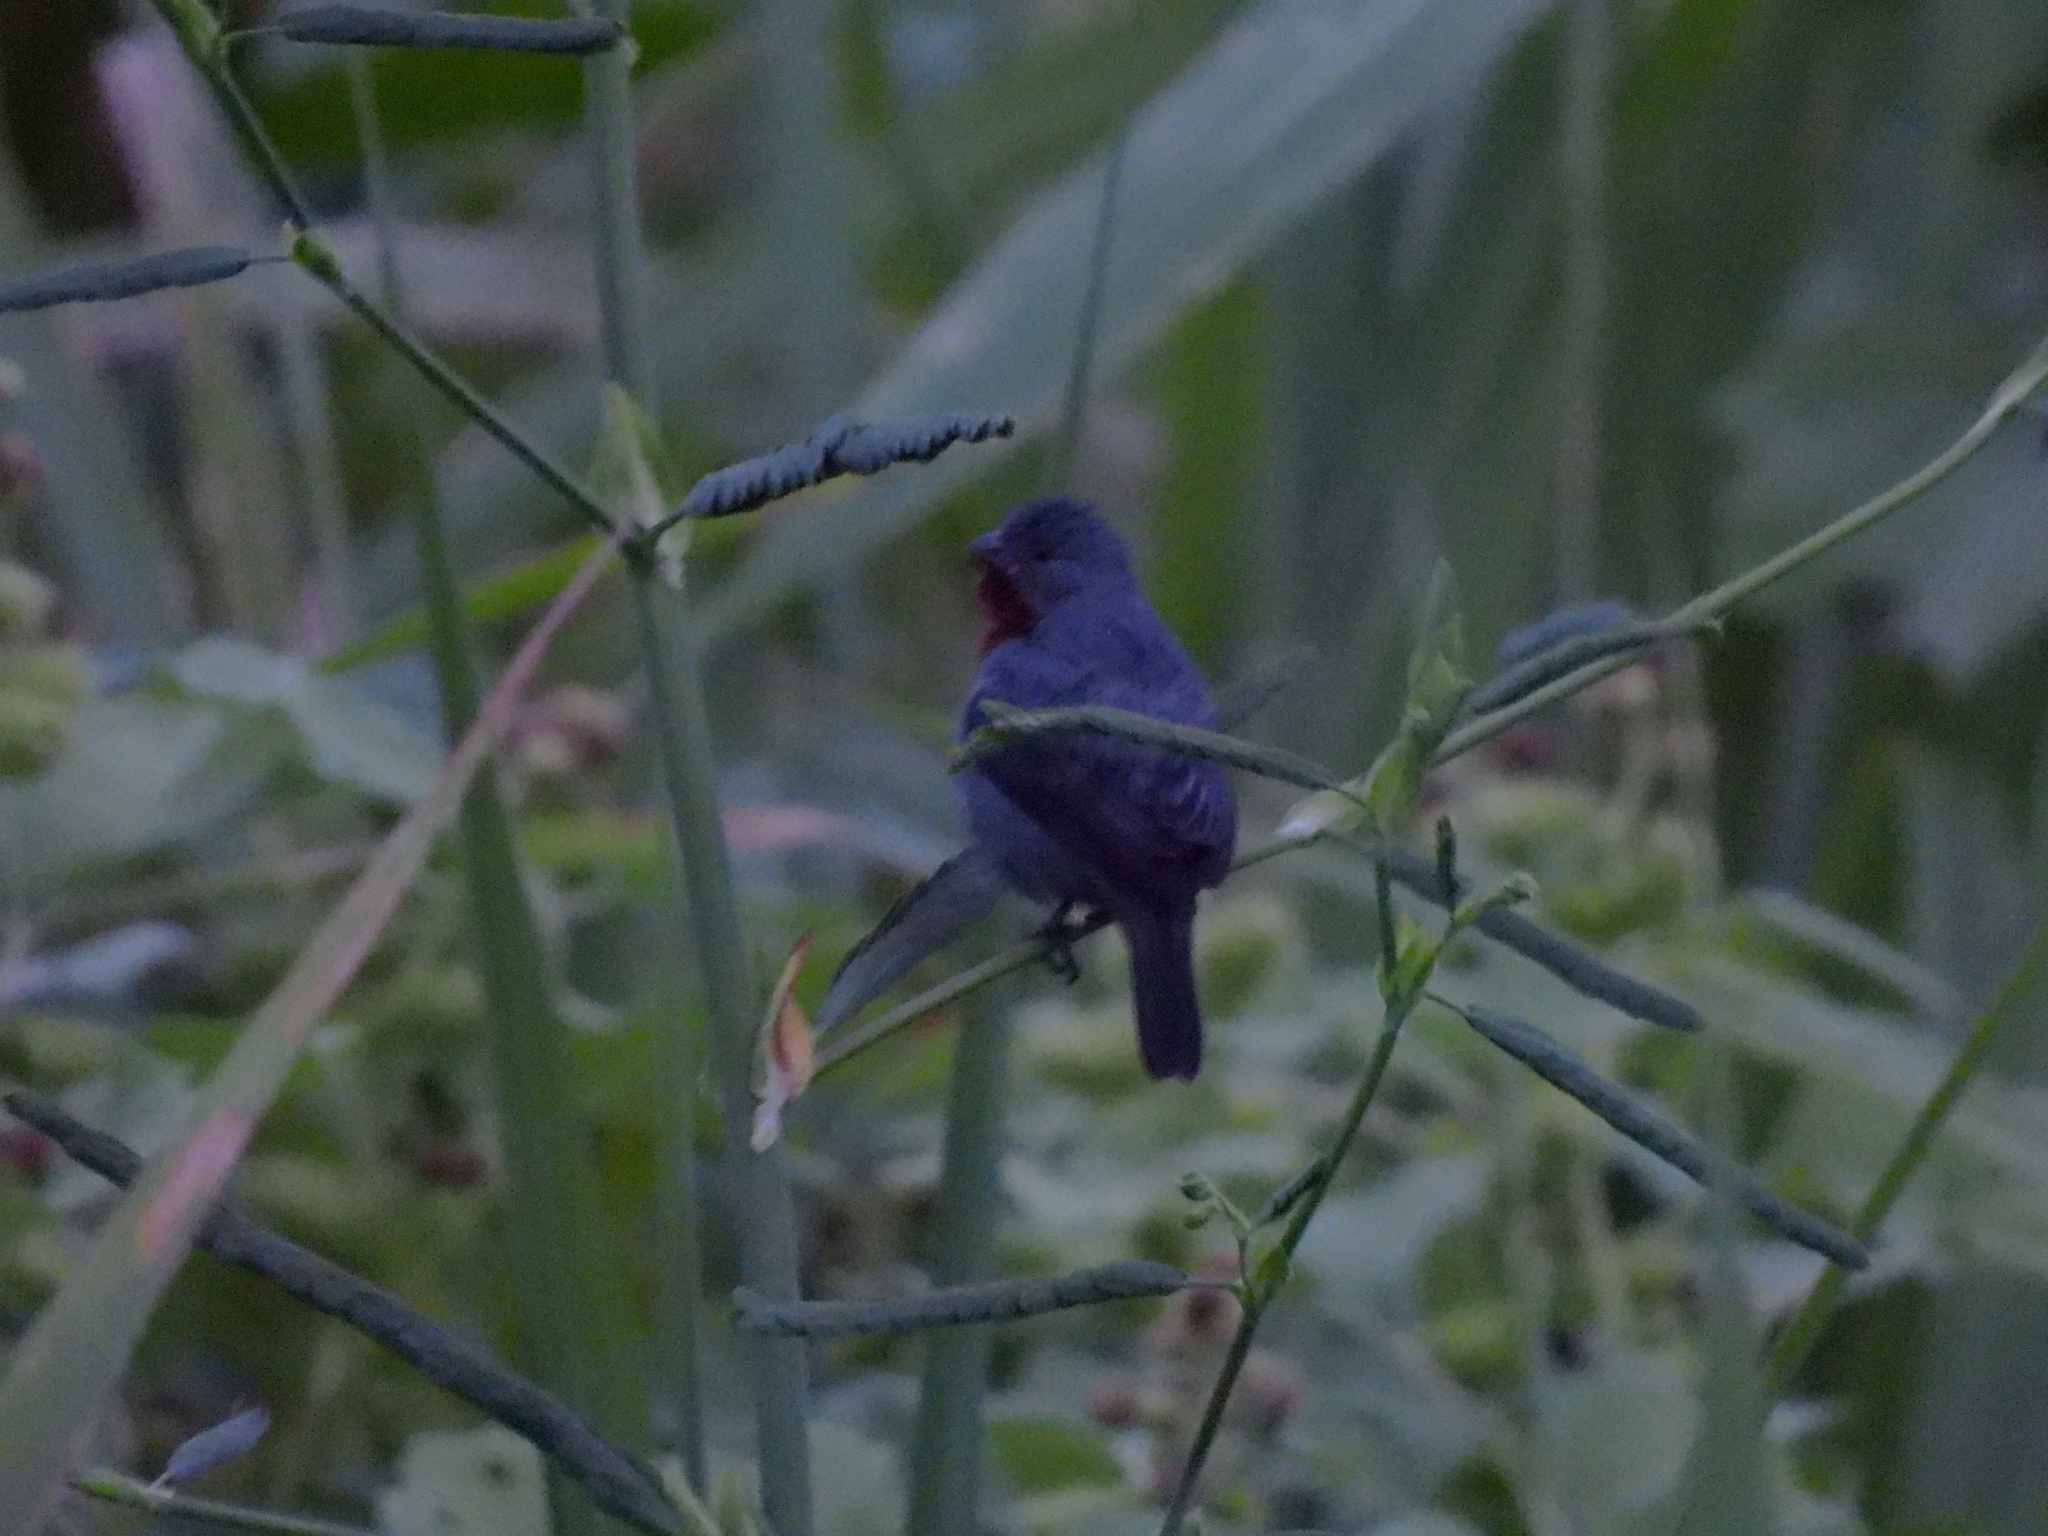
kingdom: Animalia
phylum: Chordata
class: Aves
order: Passeriformes
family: Thraupidae
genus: Sporophila
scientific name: Sporophila castaneiventris
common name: Chestnut-bellied seedeater
